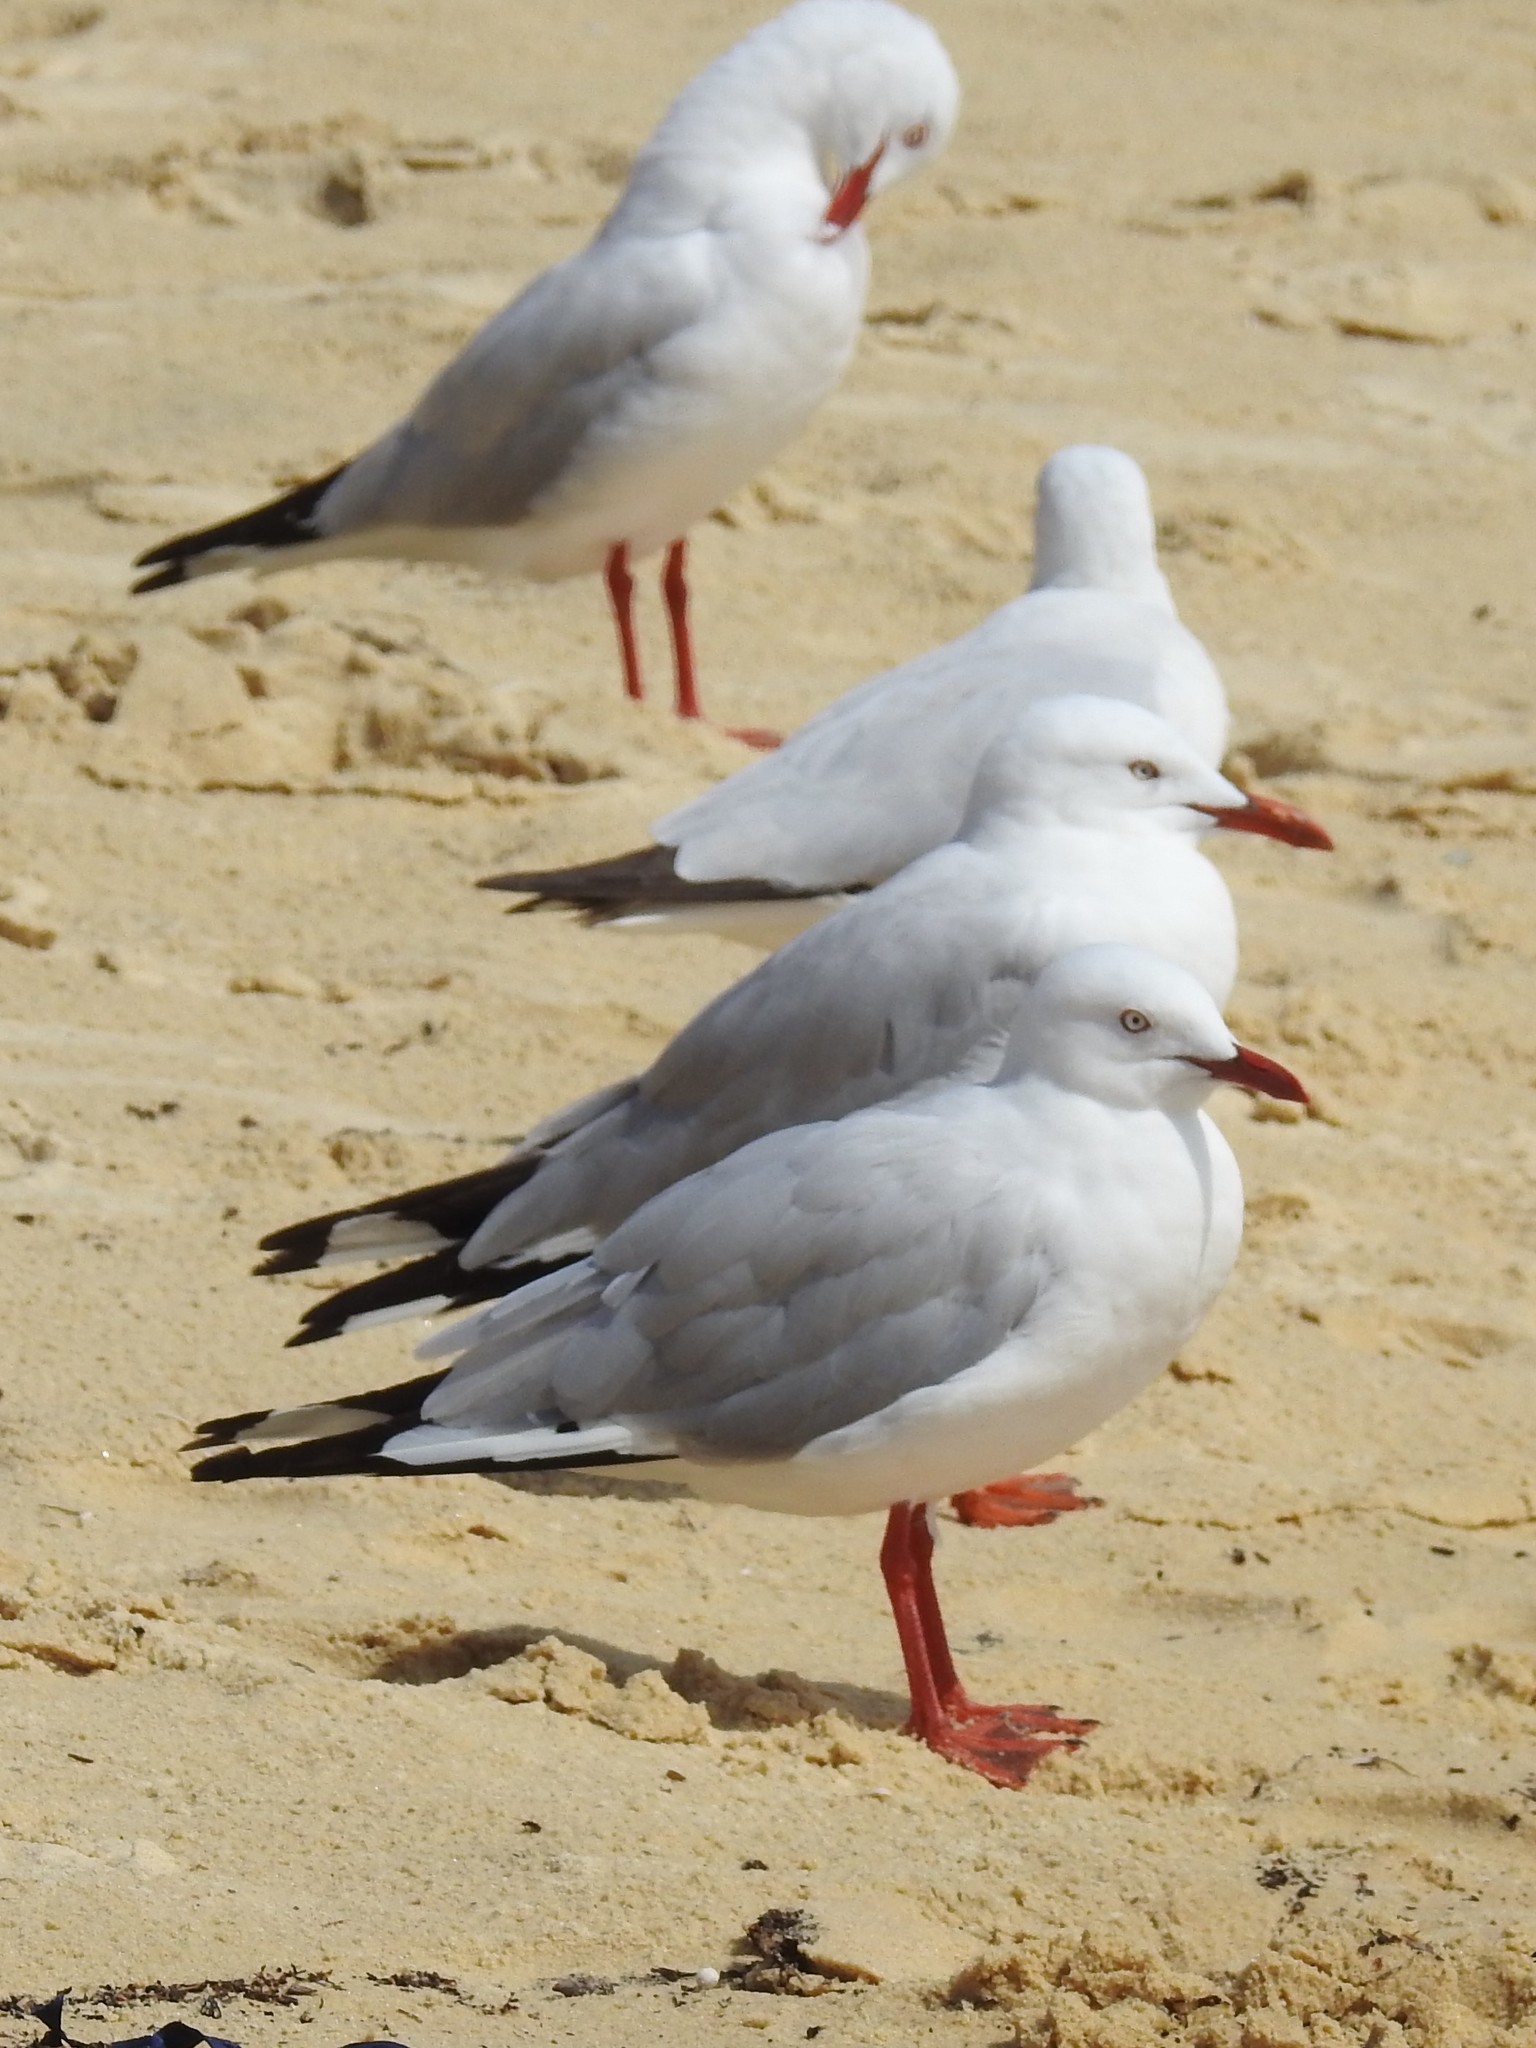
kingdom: Animalia
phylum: Chordata
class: Aves
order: Charadriiformes
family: Laridae
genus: Chroicocephalus
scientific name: Chroicocephalus novaehollandiae
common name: Silver gull
